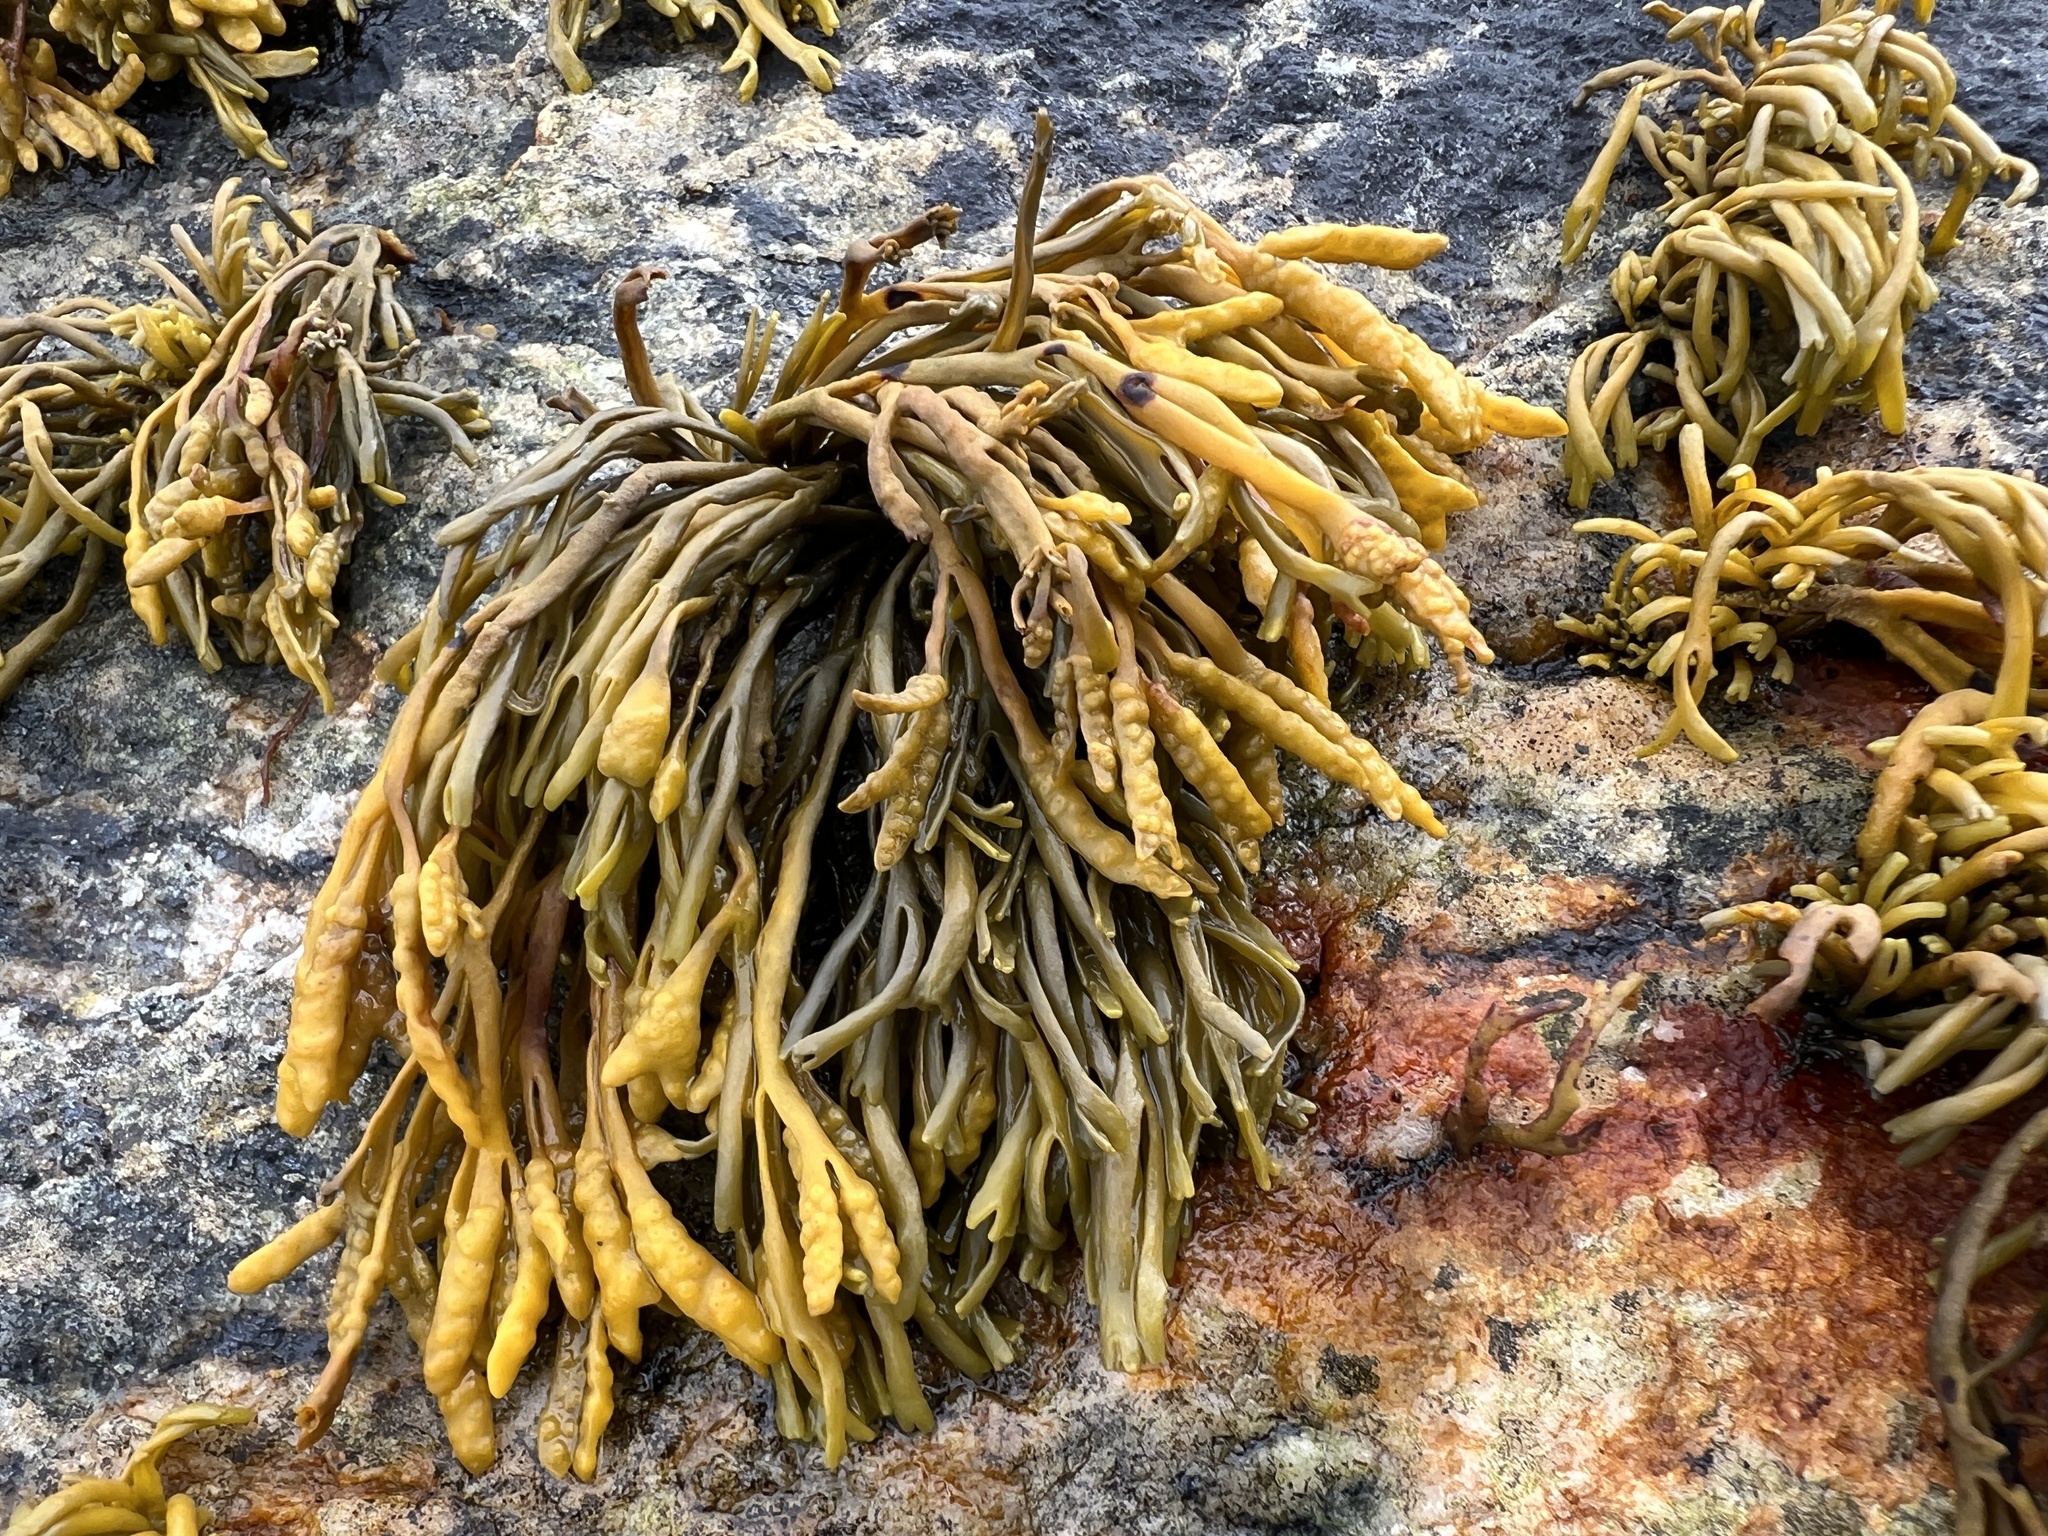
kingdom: Chromista
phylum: Ochrophyta
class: Phaeophyceae
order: Fucales
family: Fucaceae
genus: Pelvetia
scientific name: Pelvetia canaliculata
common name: Channelled wrack
